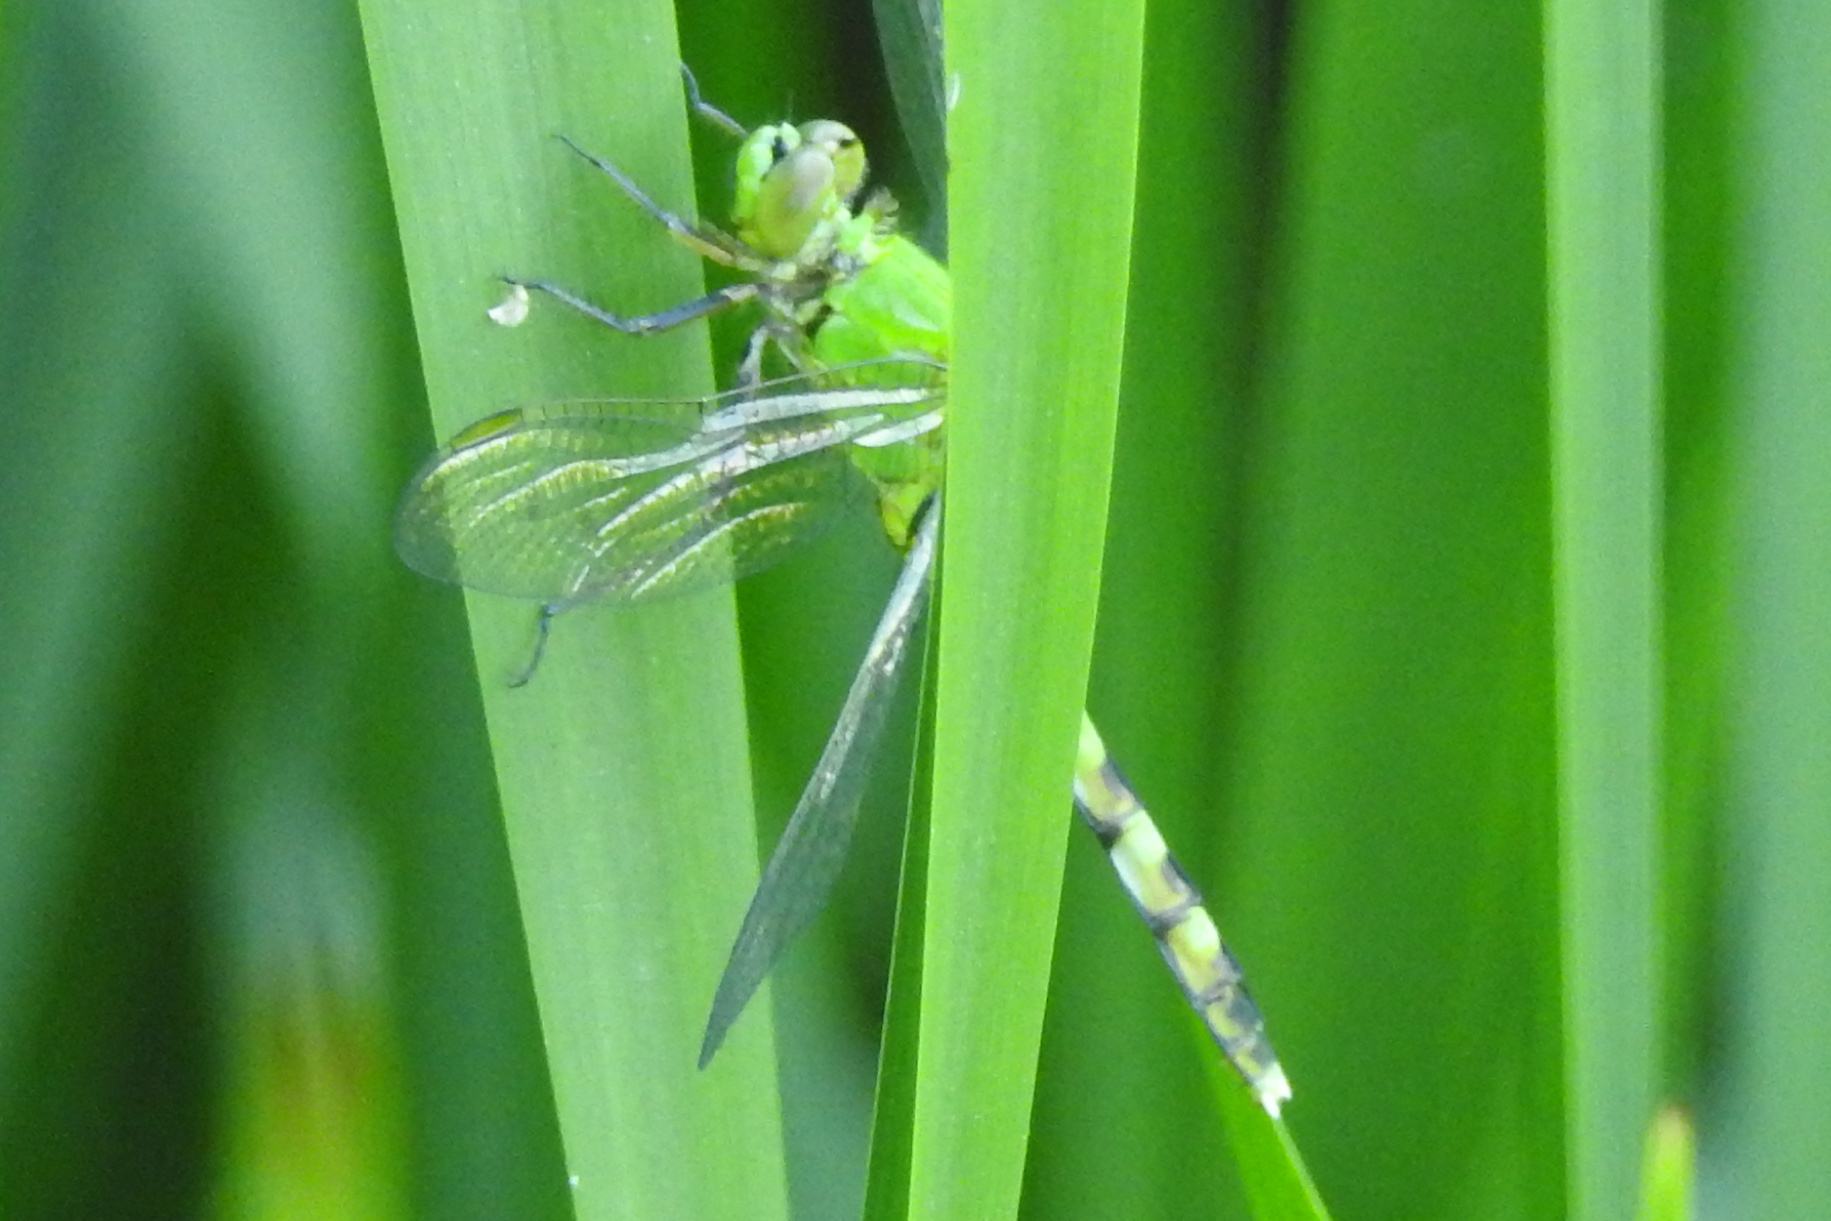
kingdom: Animalia
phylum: Arthropoda
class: Insecta
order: Odonata
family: Libellulidae
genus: Erythemis
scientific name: Erythemis simplicicollis
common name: Eastern pondhawk
